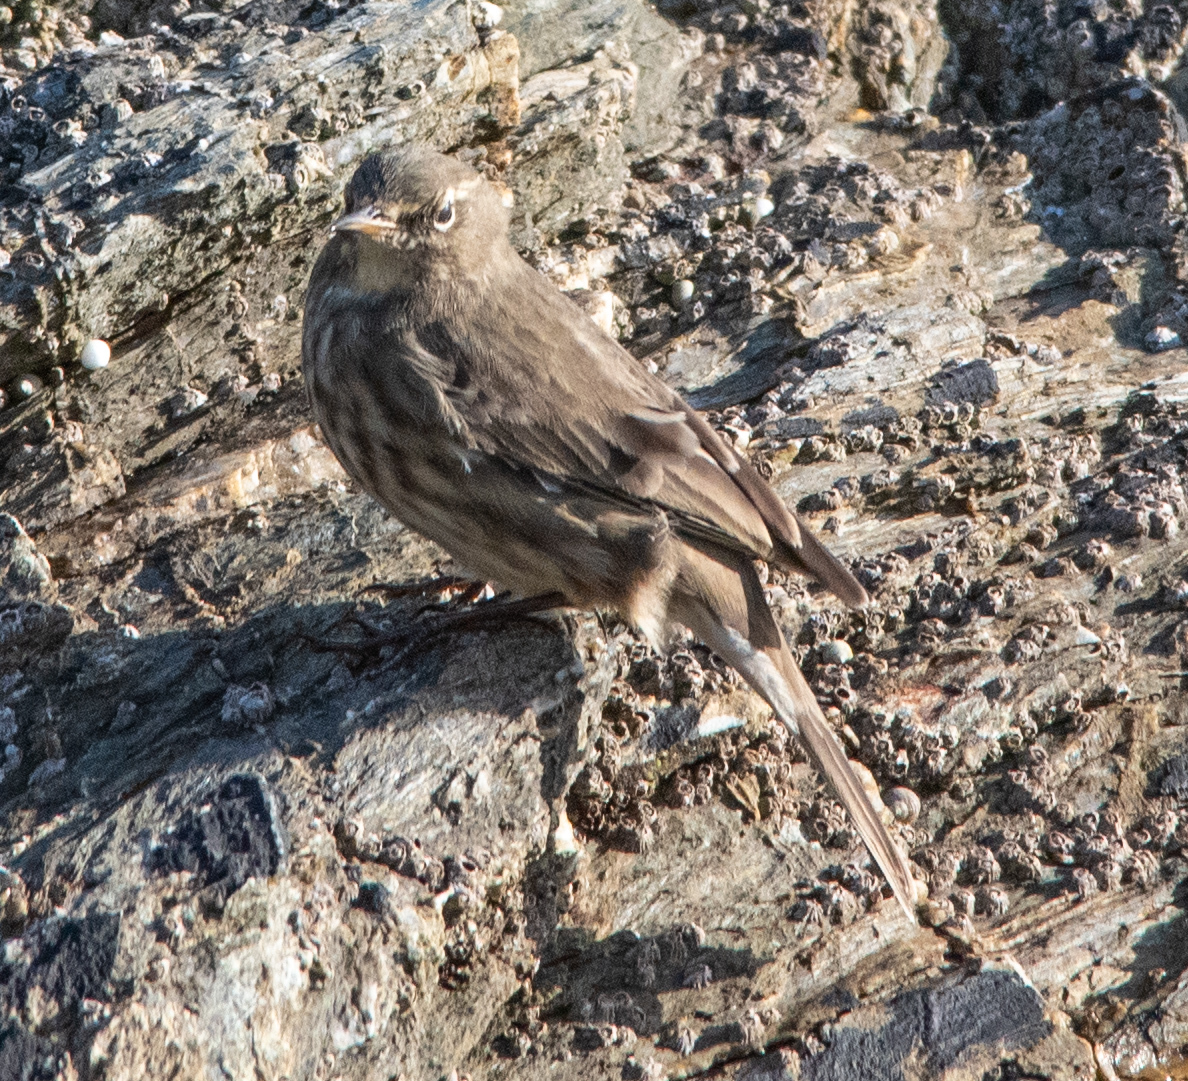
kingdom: Animalia
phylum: Chordata
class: Aves
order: Passeriformes
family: Motacillidae
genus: Anthus
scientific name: Anthus petrosus
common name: Eurasian rock pipit
